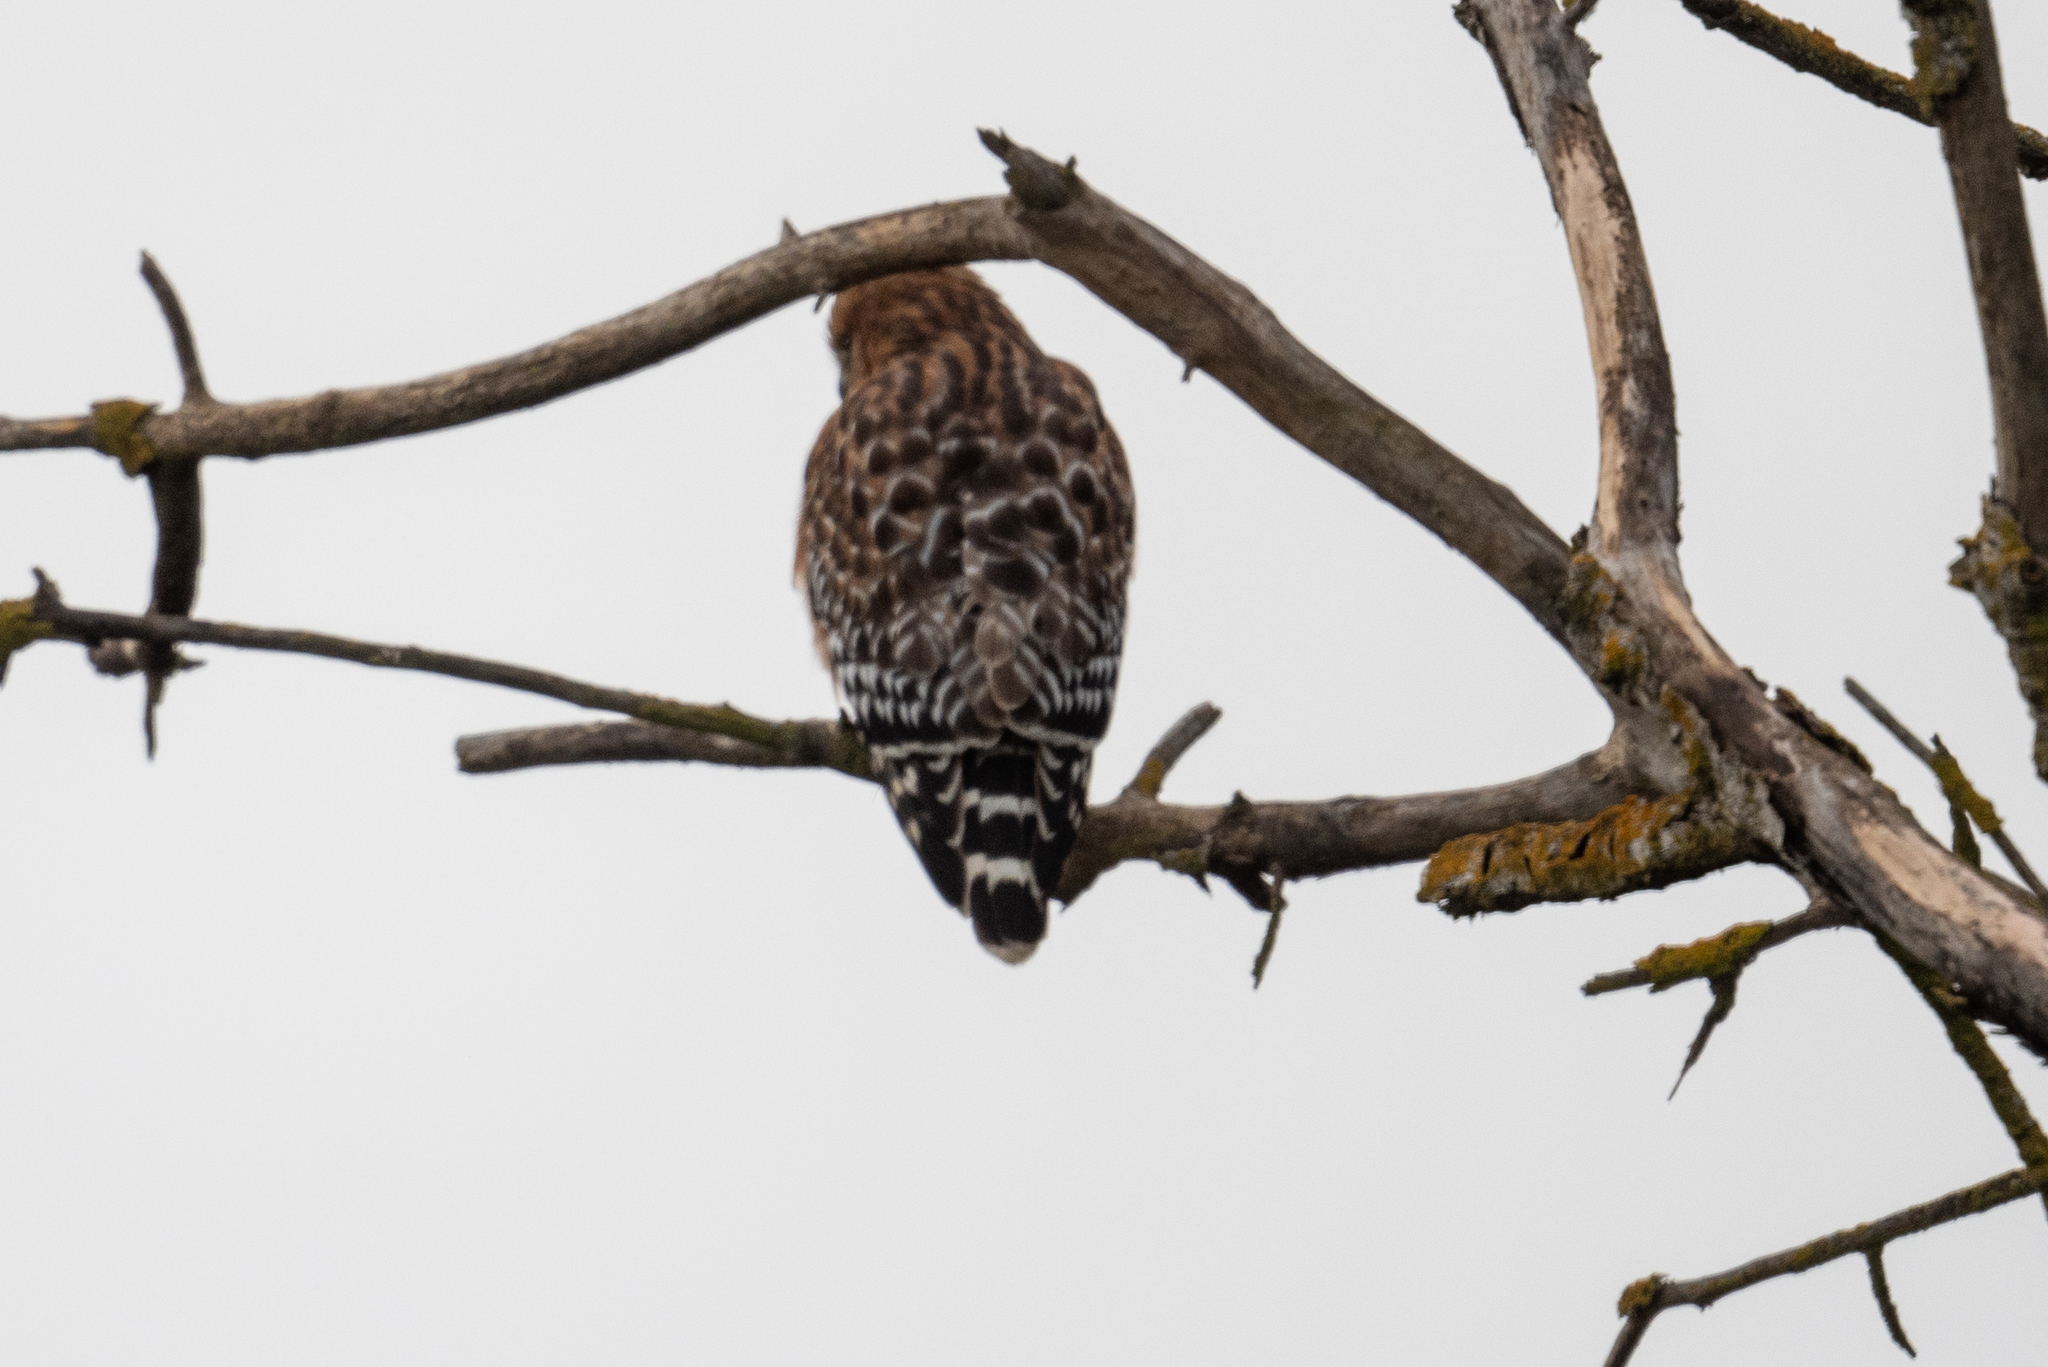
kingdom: Animalia
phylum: Chordata
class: Aves
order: Accipitriformes
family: Accipitridae
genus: Buteo
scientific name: Buteo lineatus
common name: Red-shouldered hawk
